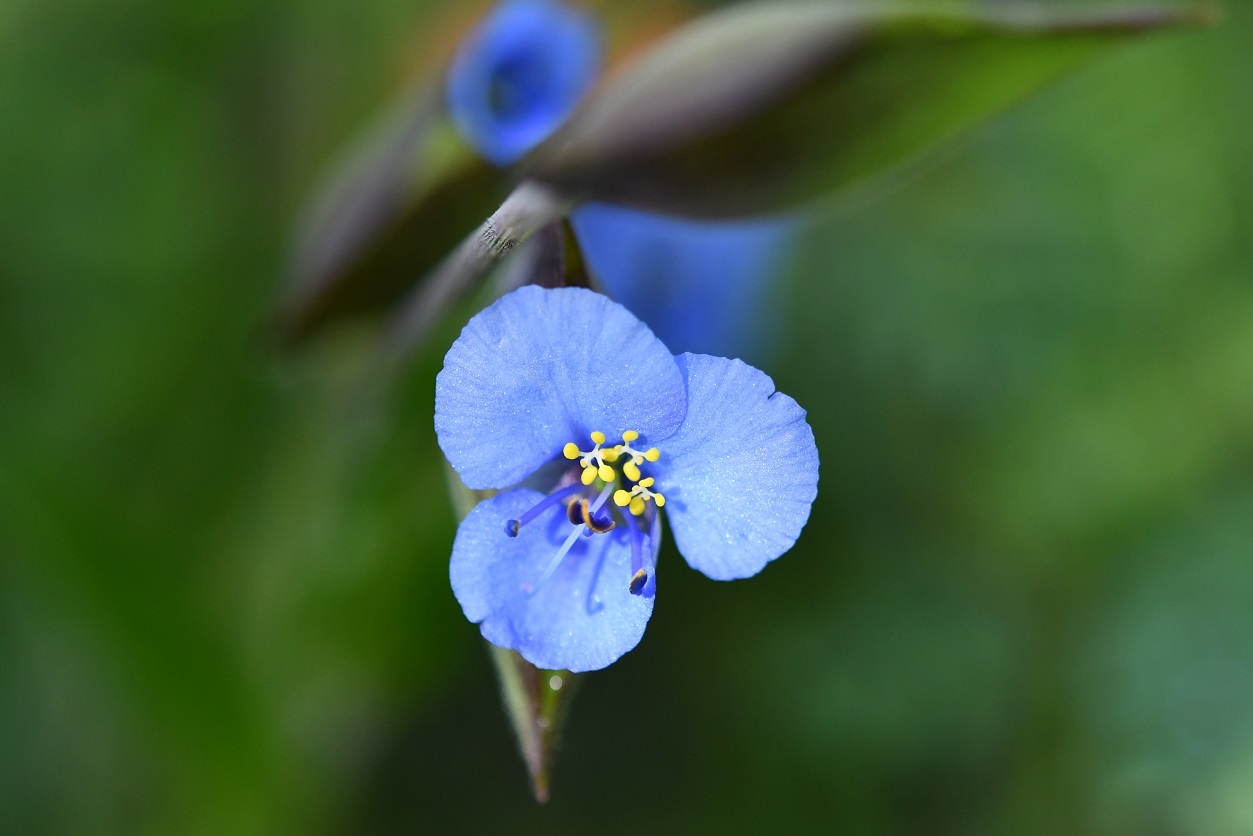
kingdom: Plantae
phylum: Tracheophyta
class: Liliopsida
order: Commelinales
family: Commelinaceae
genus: Commelina
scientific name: Commelina tuberosa
